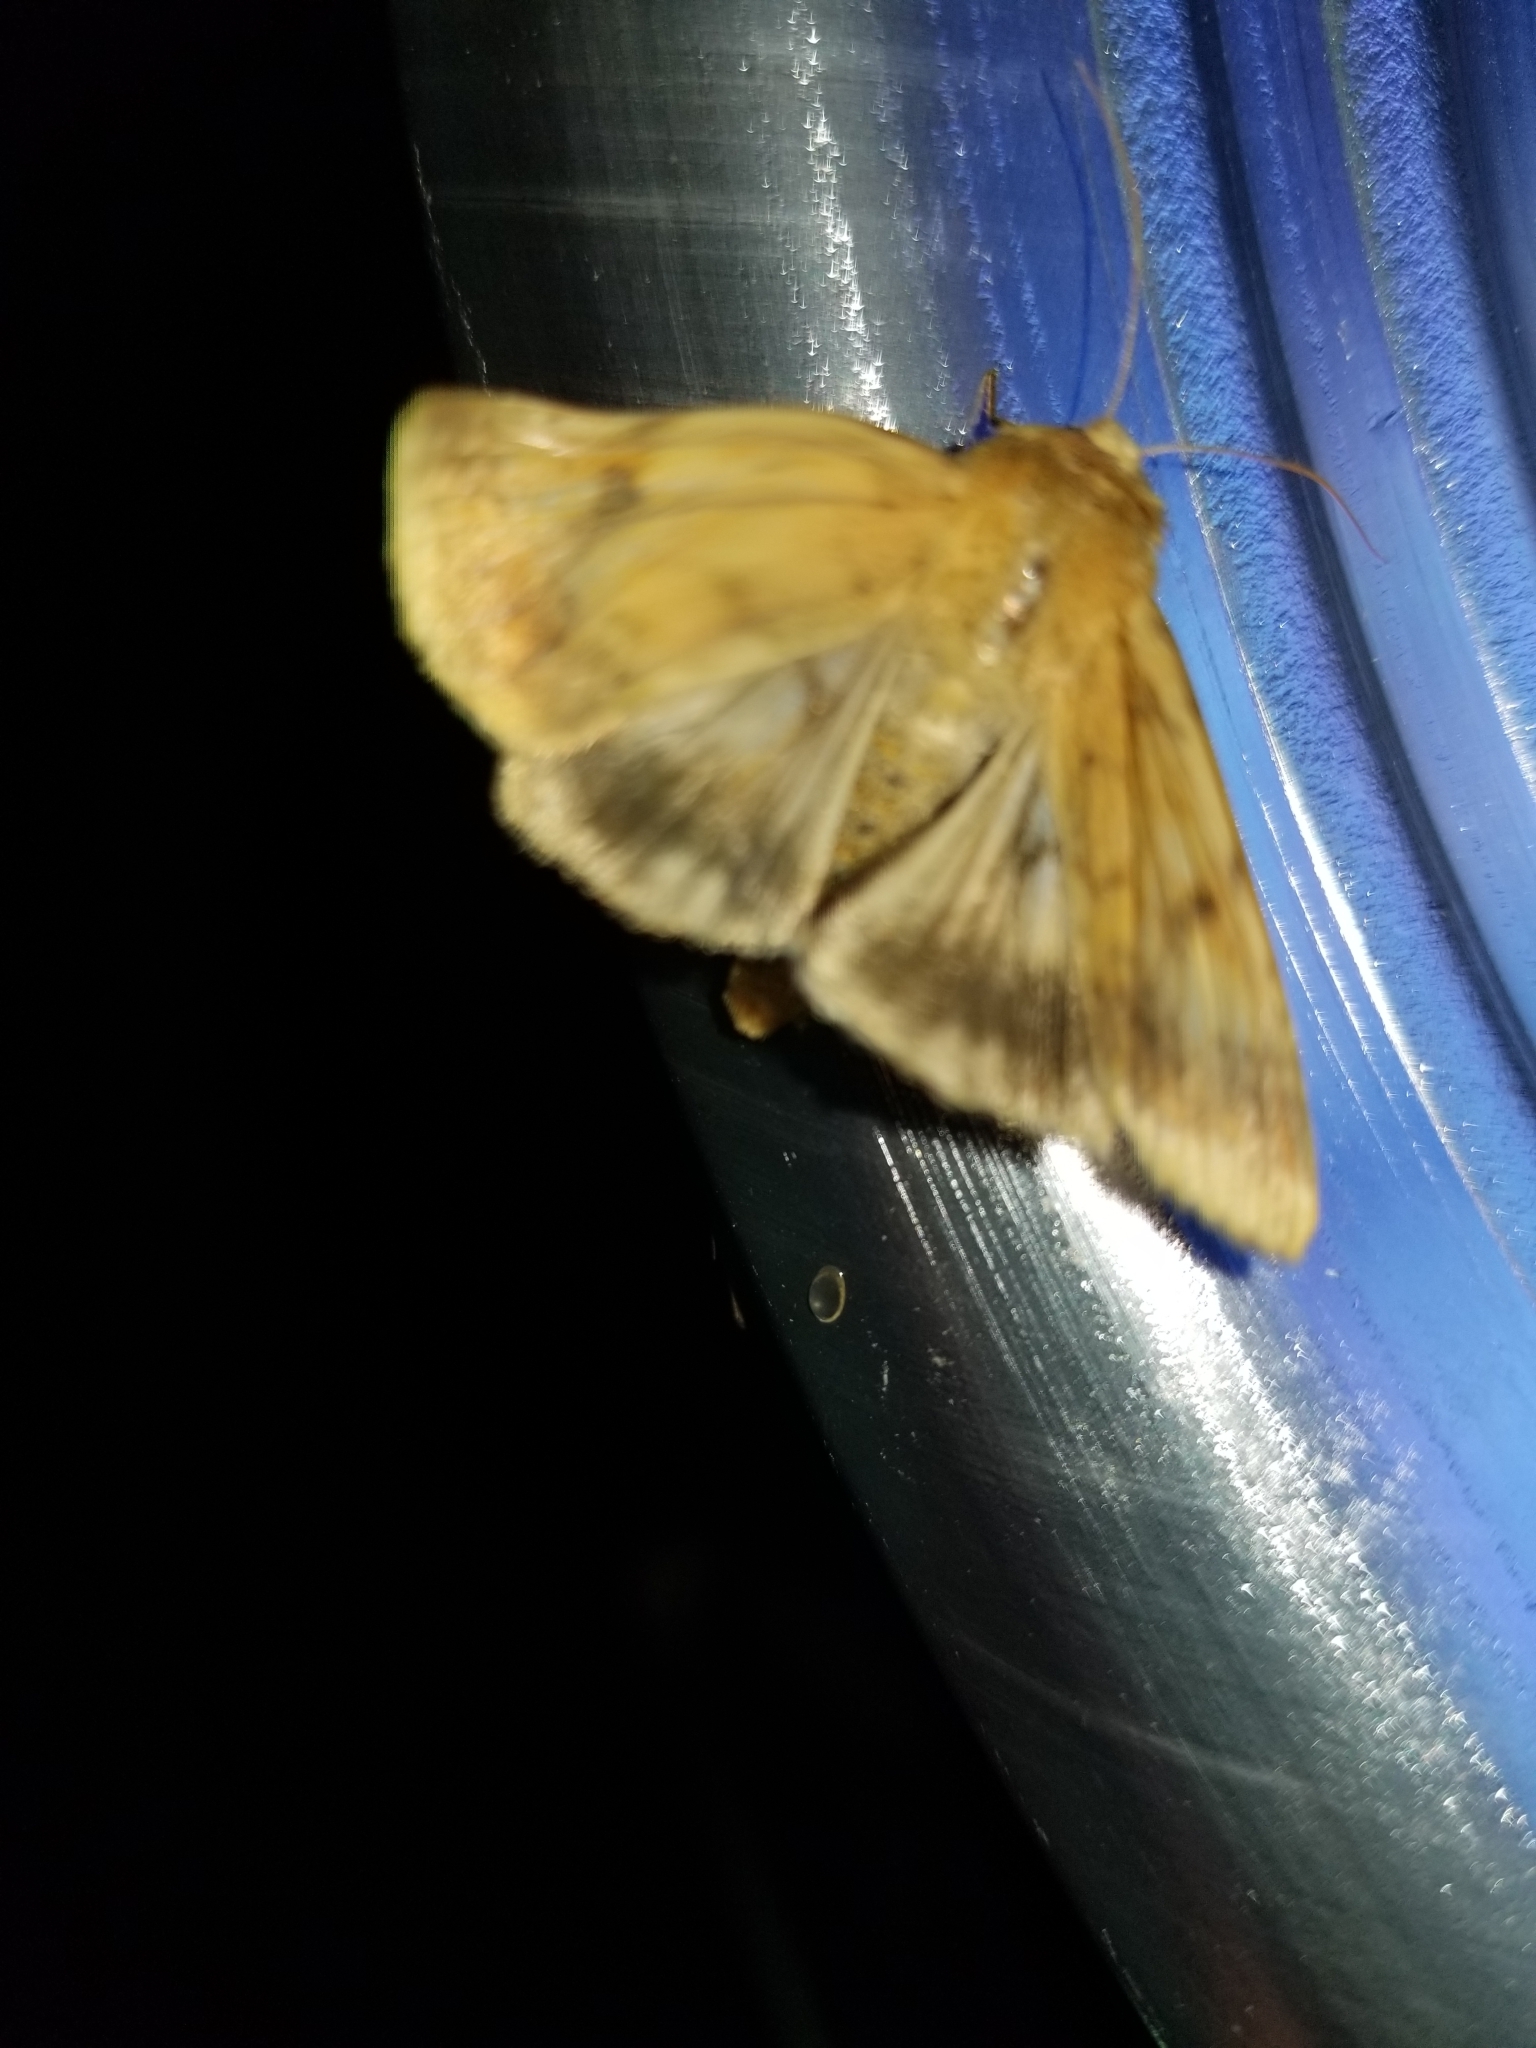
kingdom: Animalia
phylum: Arthropoda
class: Insecta
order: Lepidoptera
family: Noctuidae
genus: Helicoverpa
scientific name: Helicoverpa zea
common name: Bollworm
